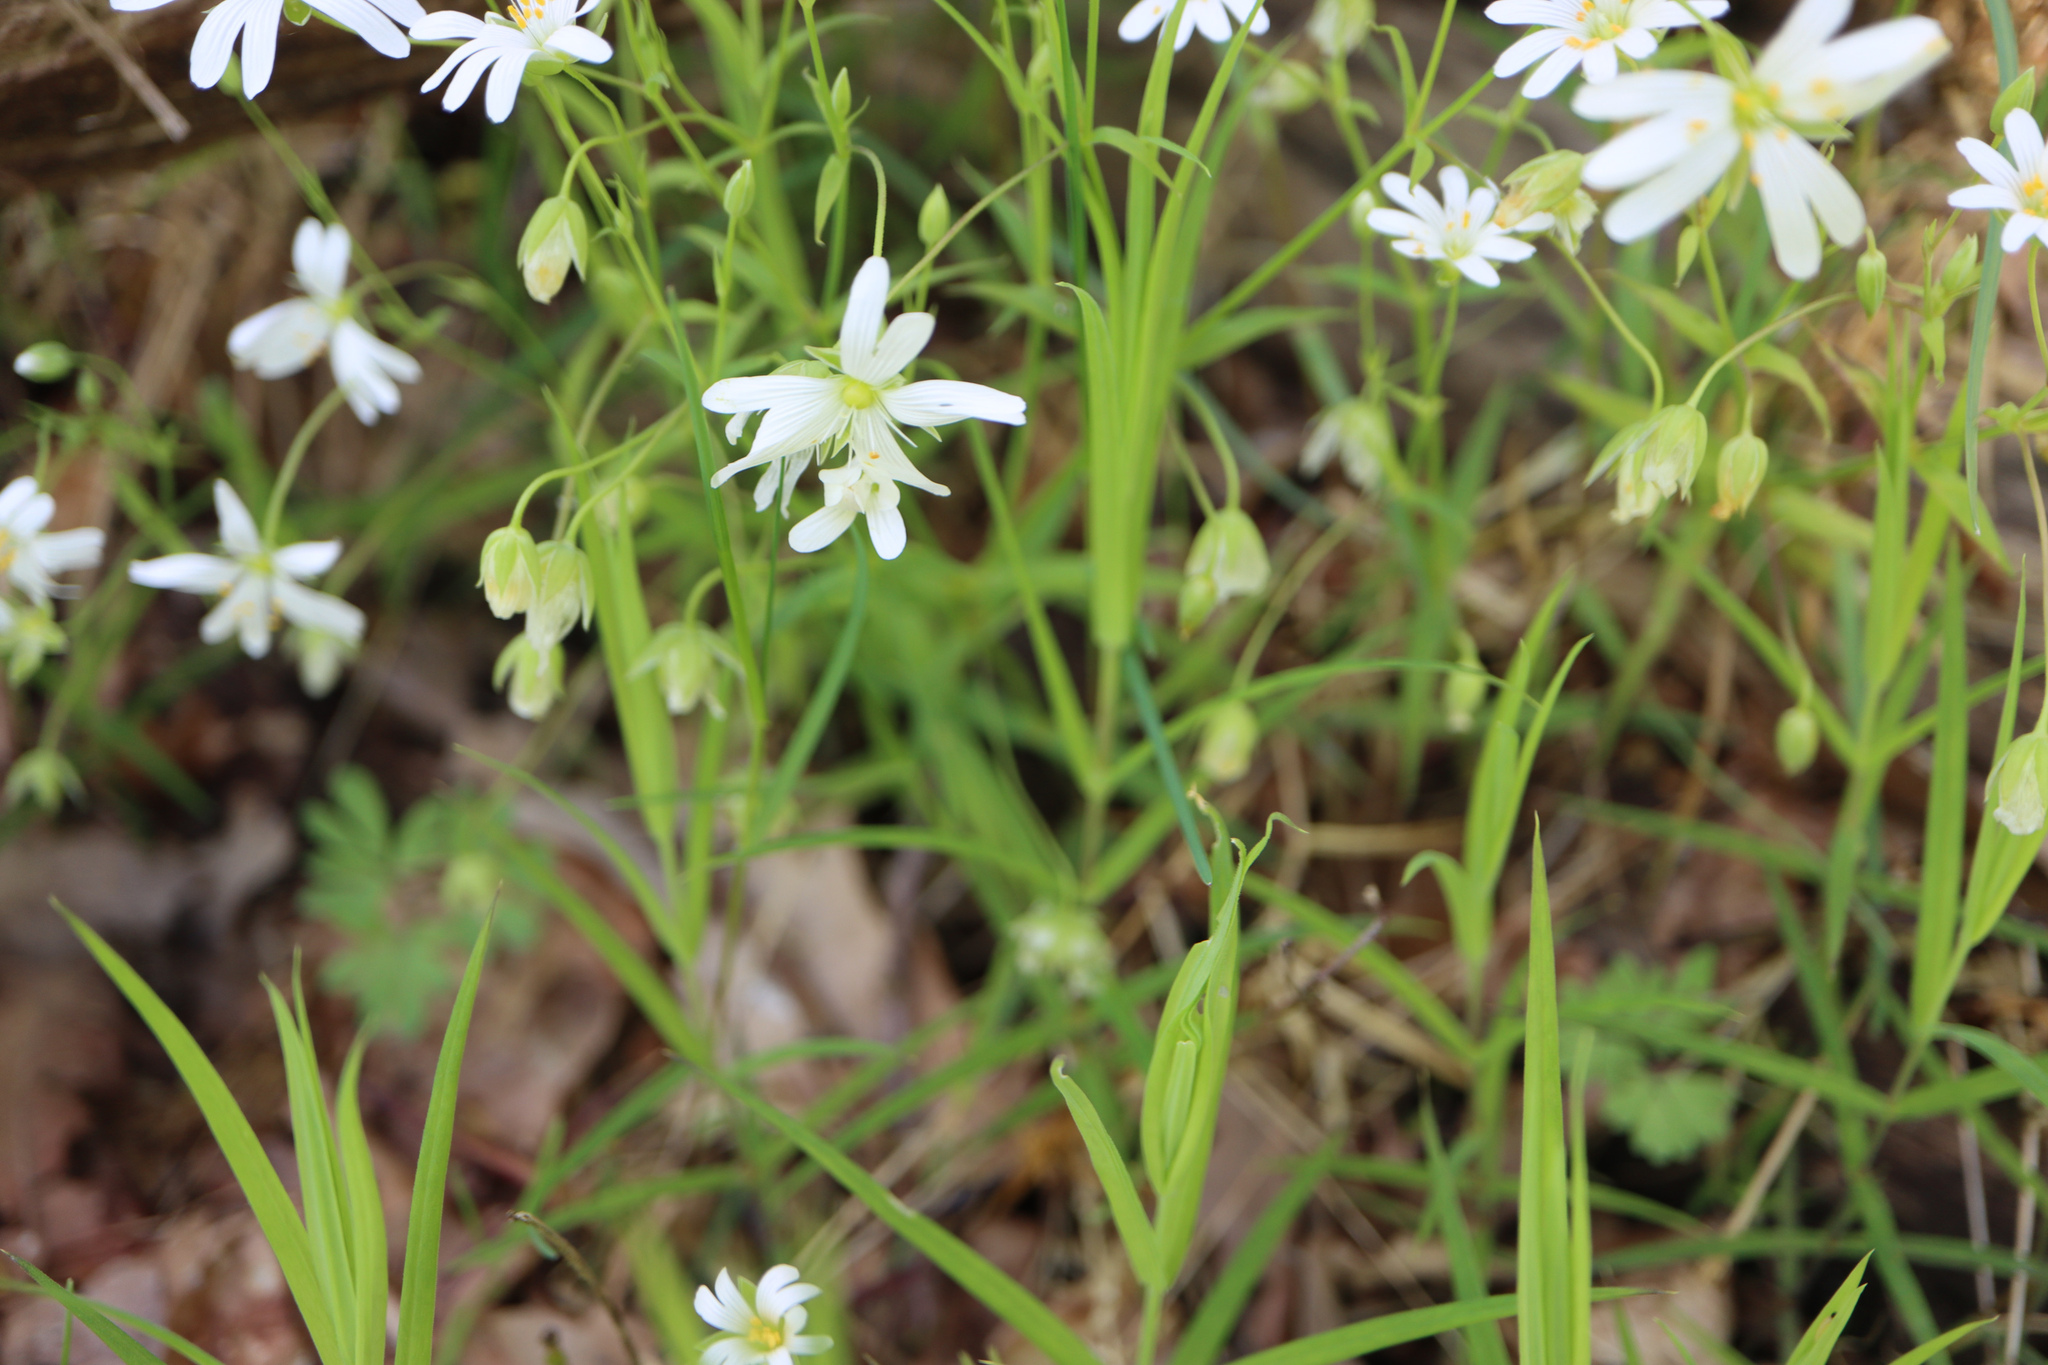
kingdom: Plantae
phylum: Tracheophyta
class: Magnoliopsida
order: Caryophyllales
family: Caryophyllaceae
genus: Rabelera
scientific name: Rabelera holostea
